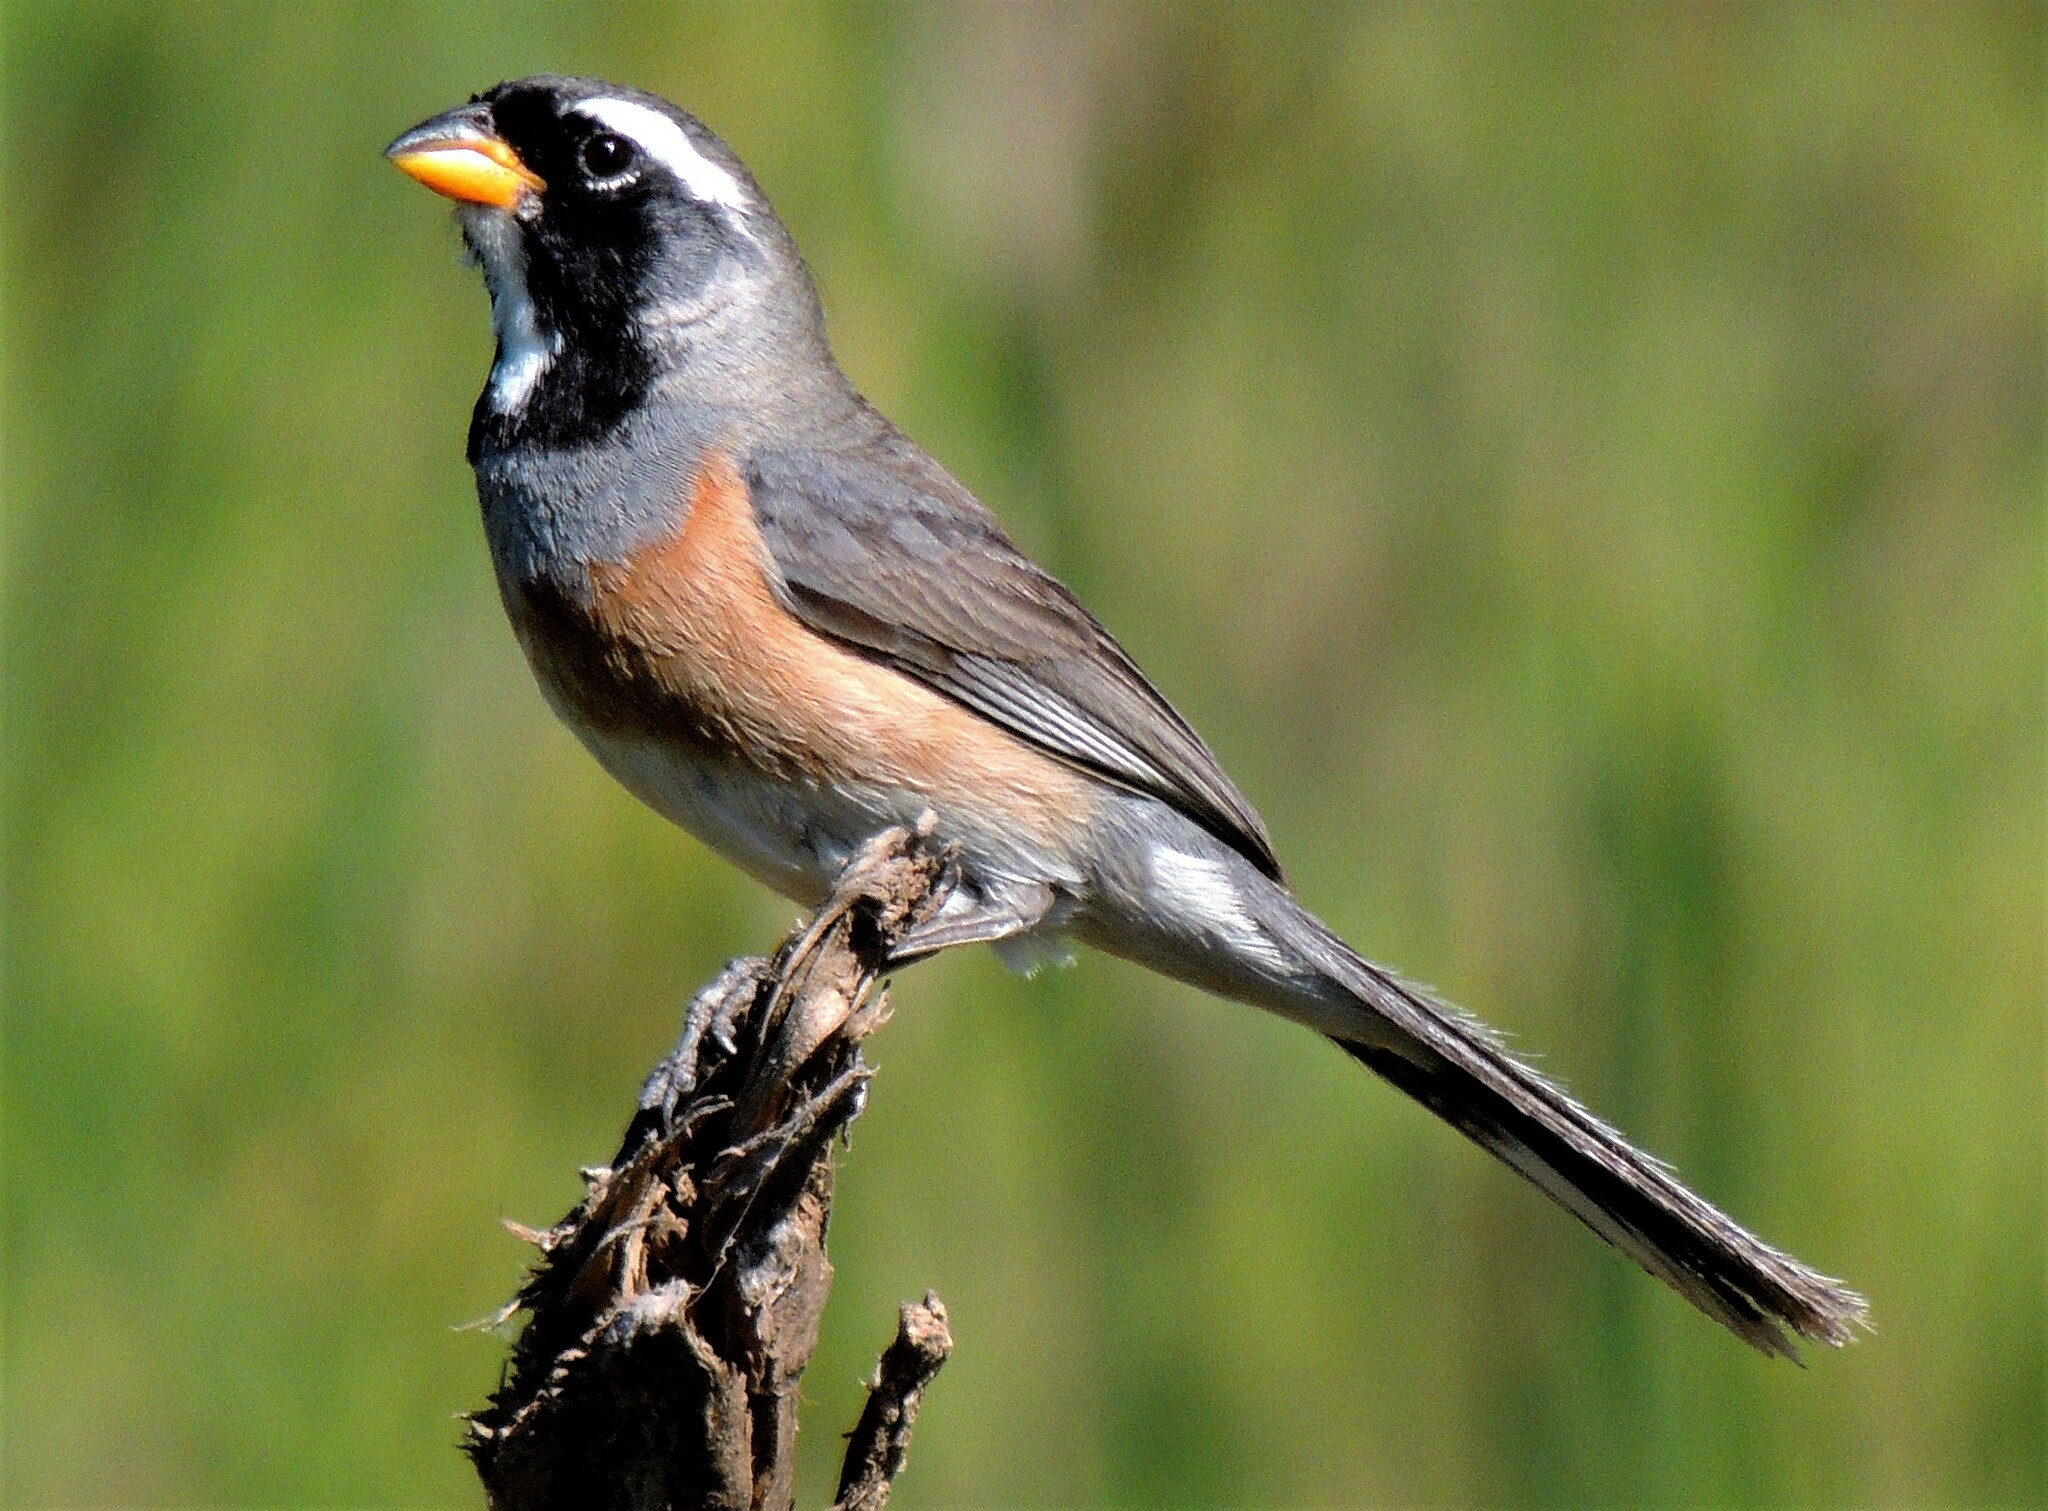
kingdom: Animalia
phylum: Chordata
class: Aves
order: Passeriformes
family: Thraupidae
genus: Saltatricula
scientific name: Saltatricula multicolor
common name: Many-colored chaco finch
